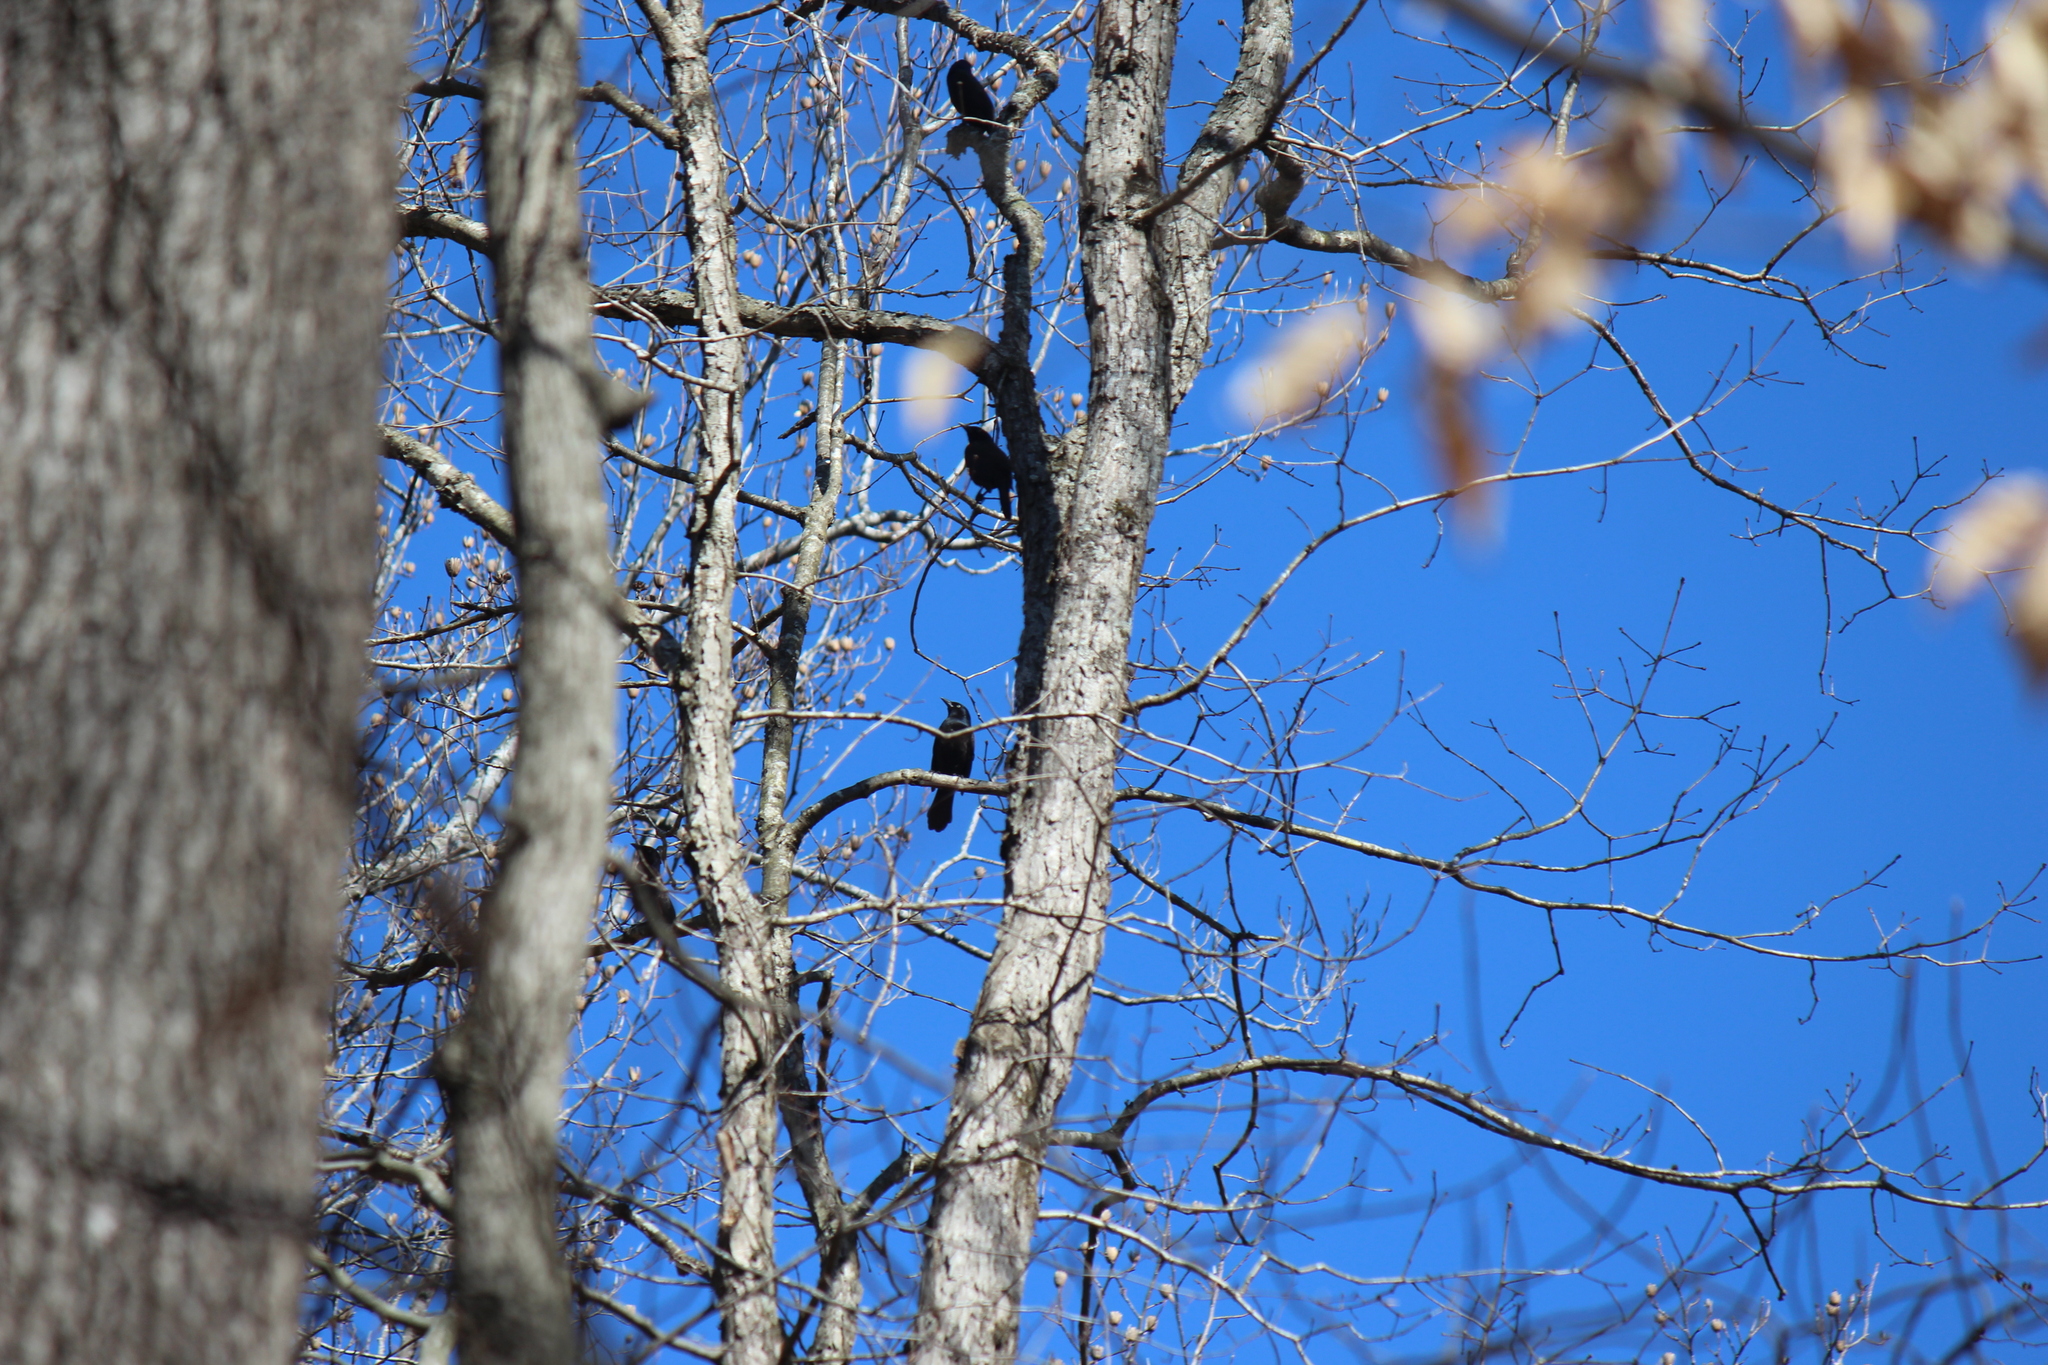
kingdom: Animalia
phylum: Chordata
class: Aves
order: Passeriformes
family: Icteridae
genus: Quiscalus
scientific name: Quiscalus quiscula
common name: Common grackle
